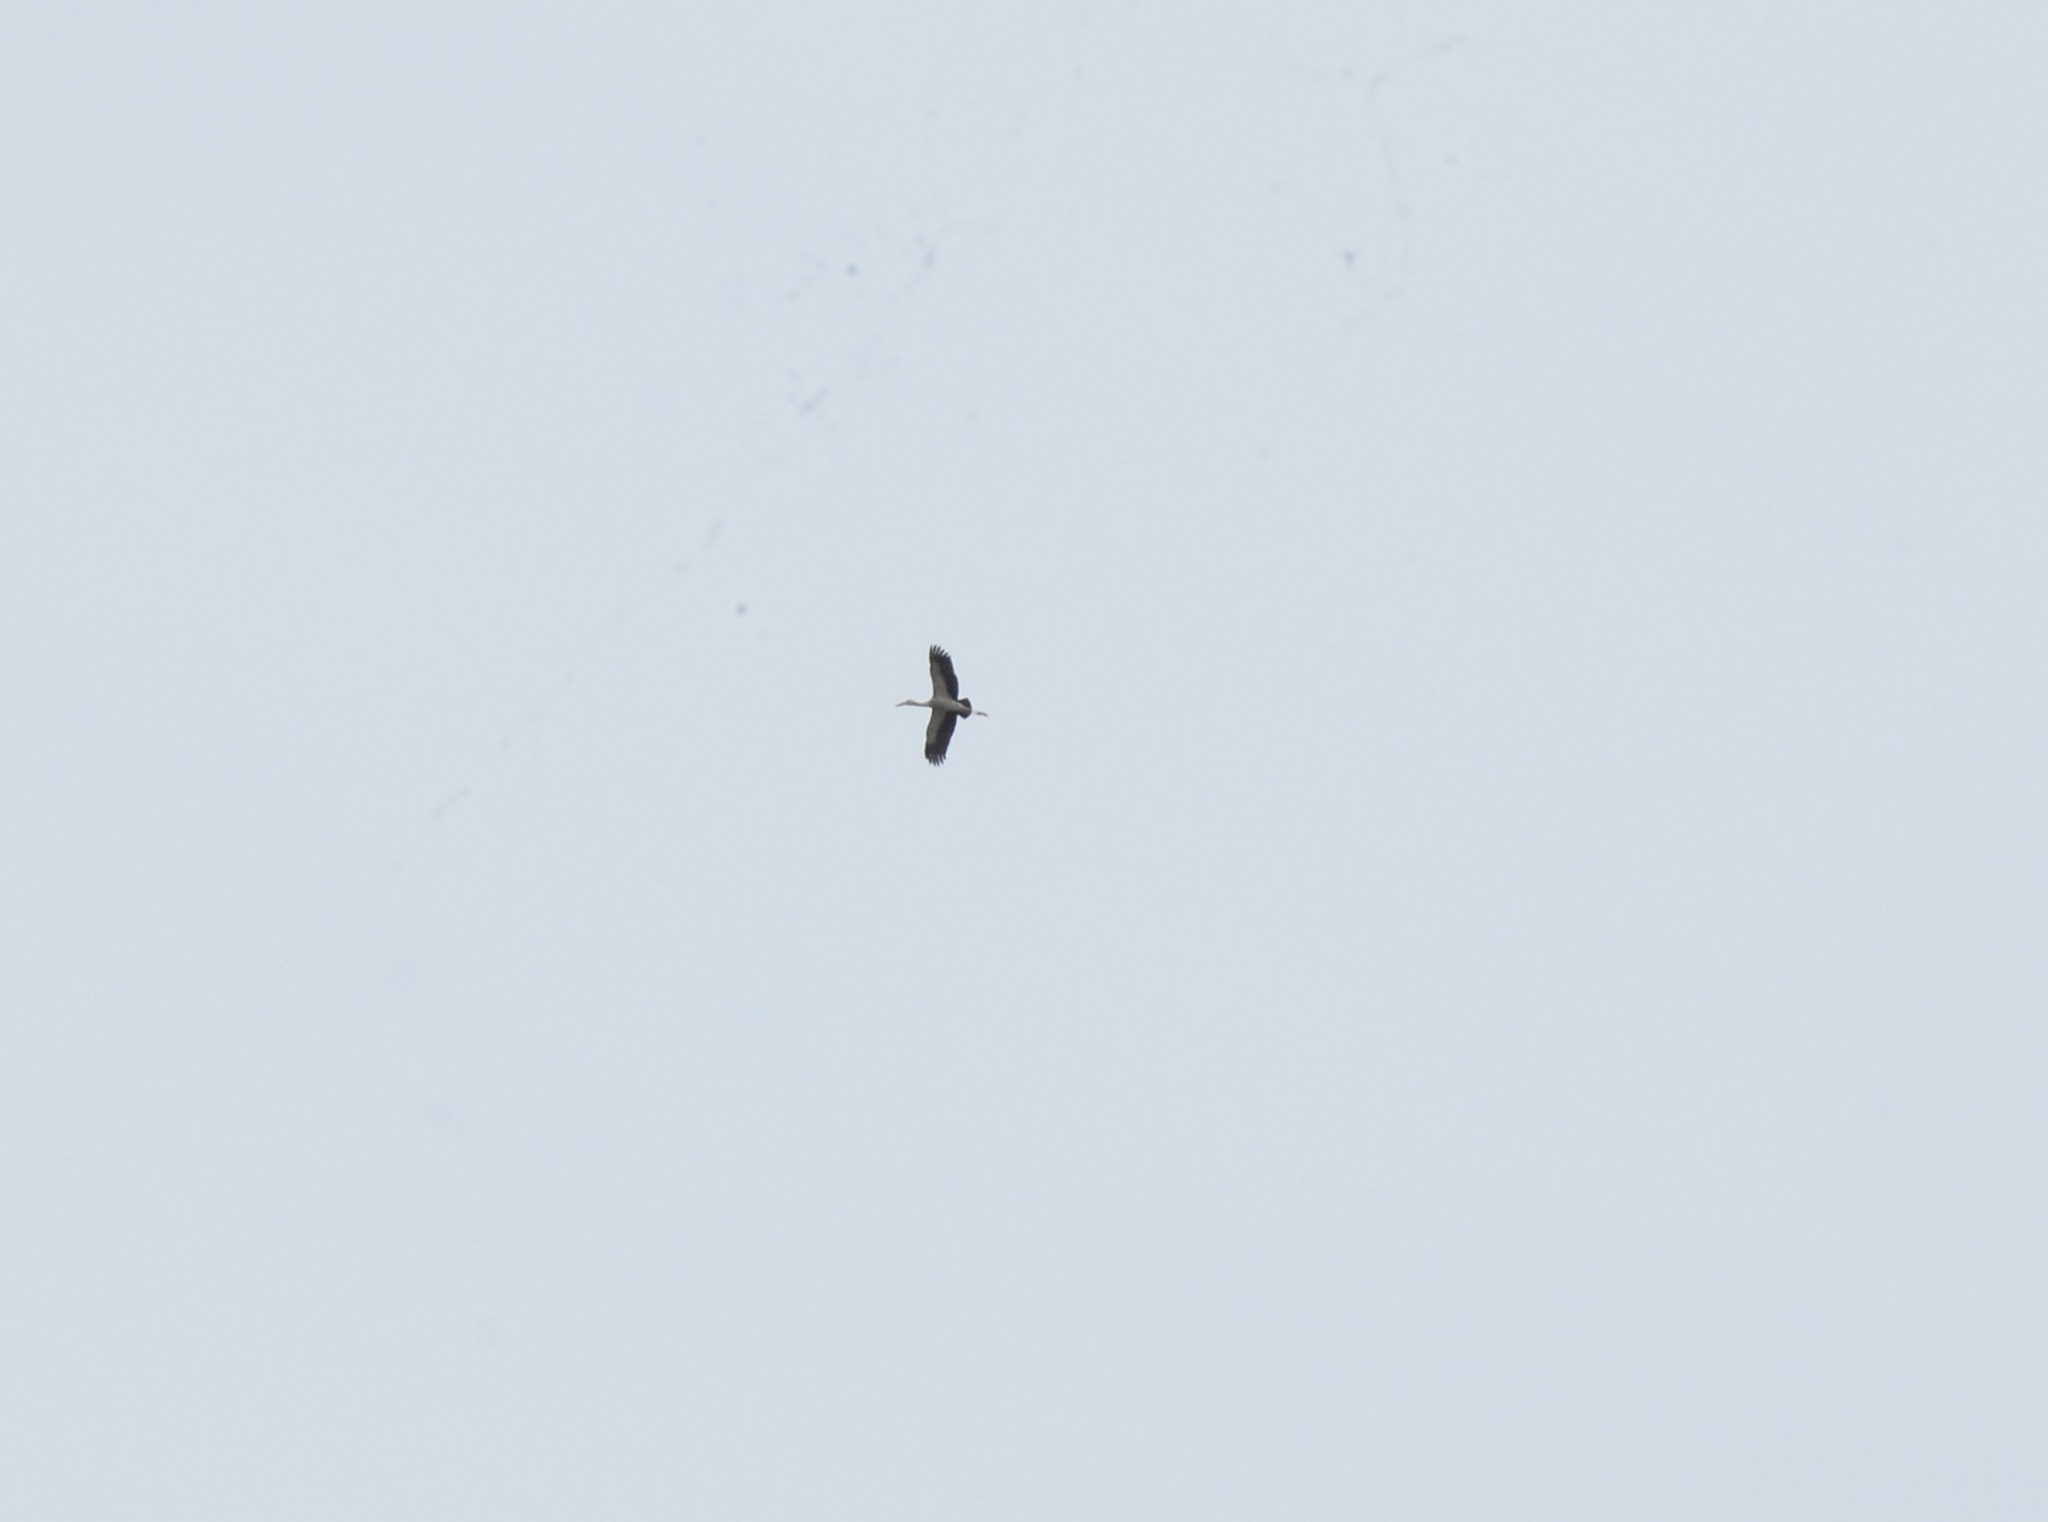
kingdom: Animalia
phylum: Chordata
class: Aves
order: Ciconiiformes
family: Ciconiidae
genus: Anastomus
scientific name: Anastomus oscitans
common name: Asian openbill
